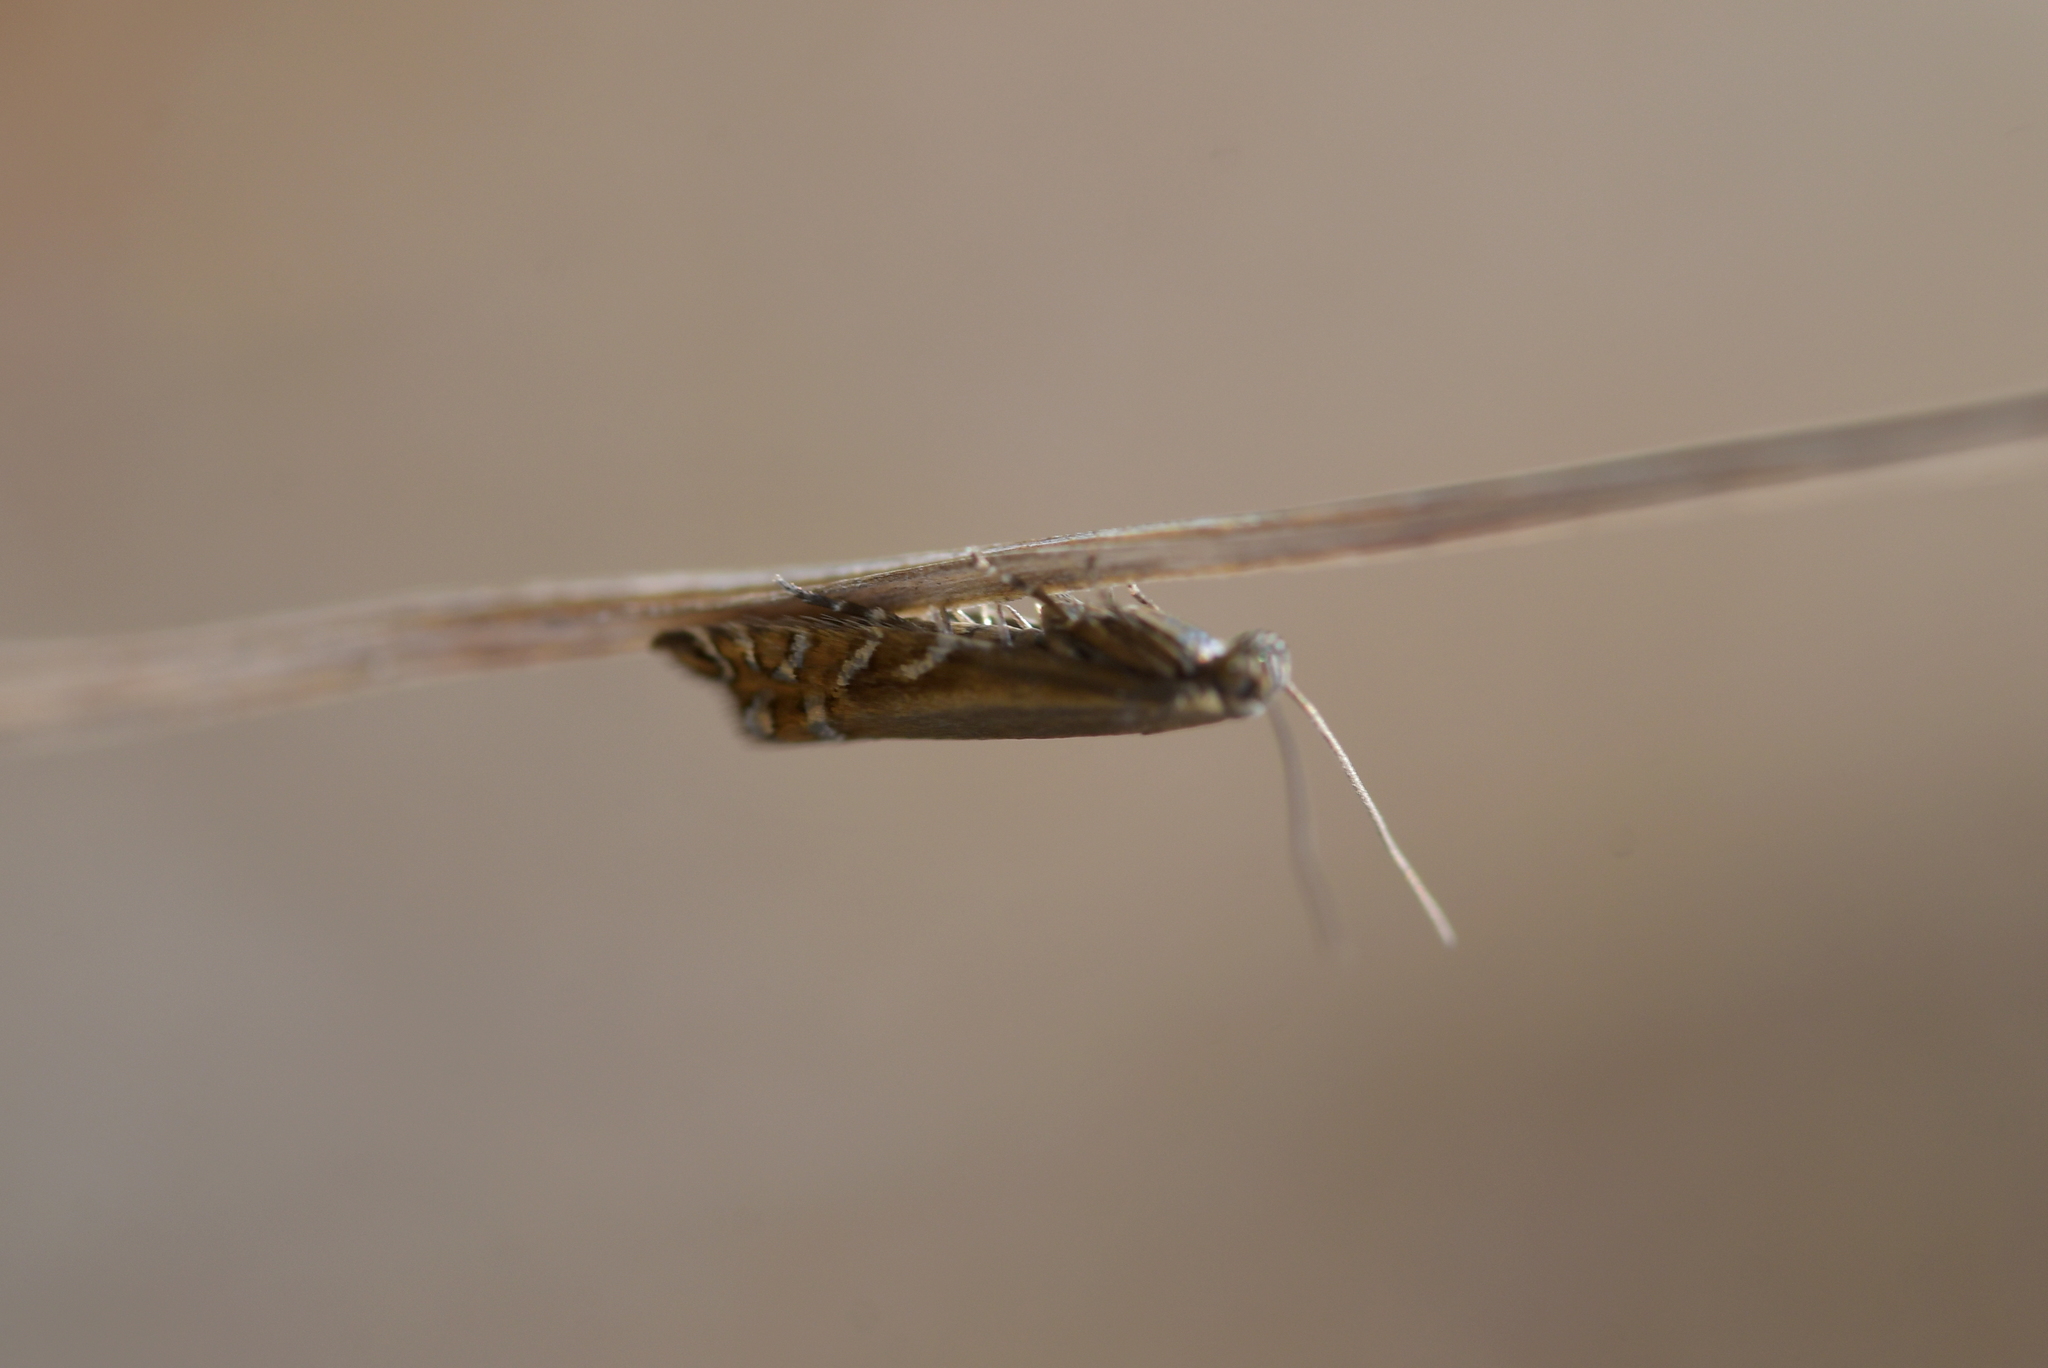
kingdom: Animalia
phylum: Arthropoda
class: Insecta
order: Lepidoptera
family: Glyphipterigidae
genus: Glyphipterix
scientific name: Glyphipterix scintilella
